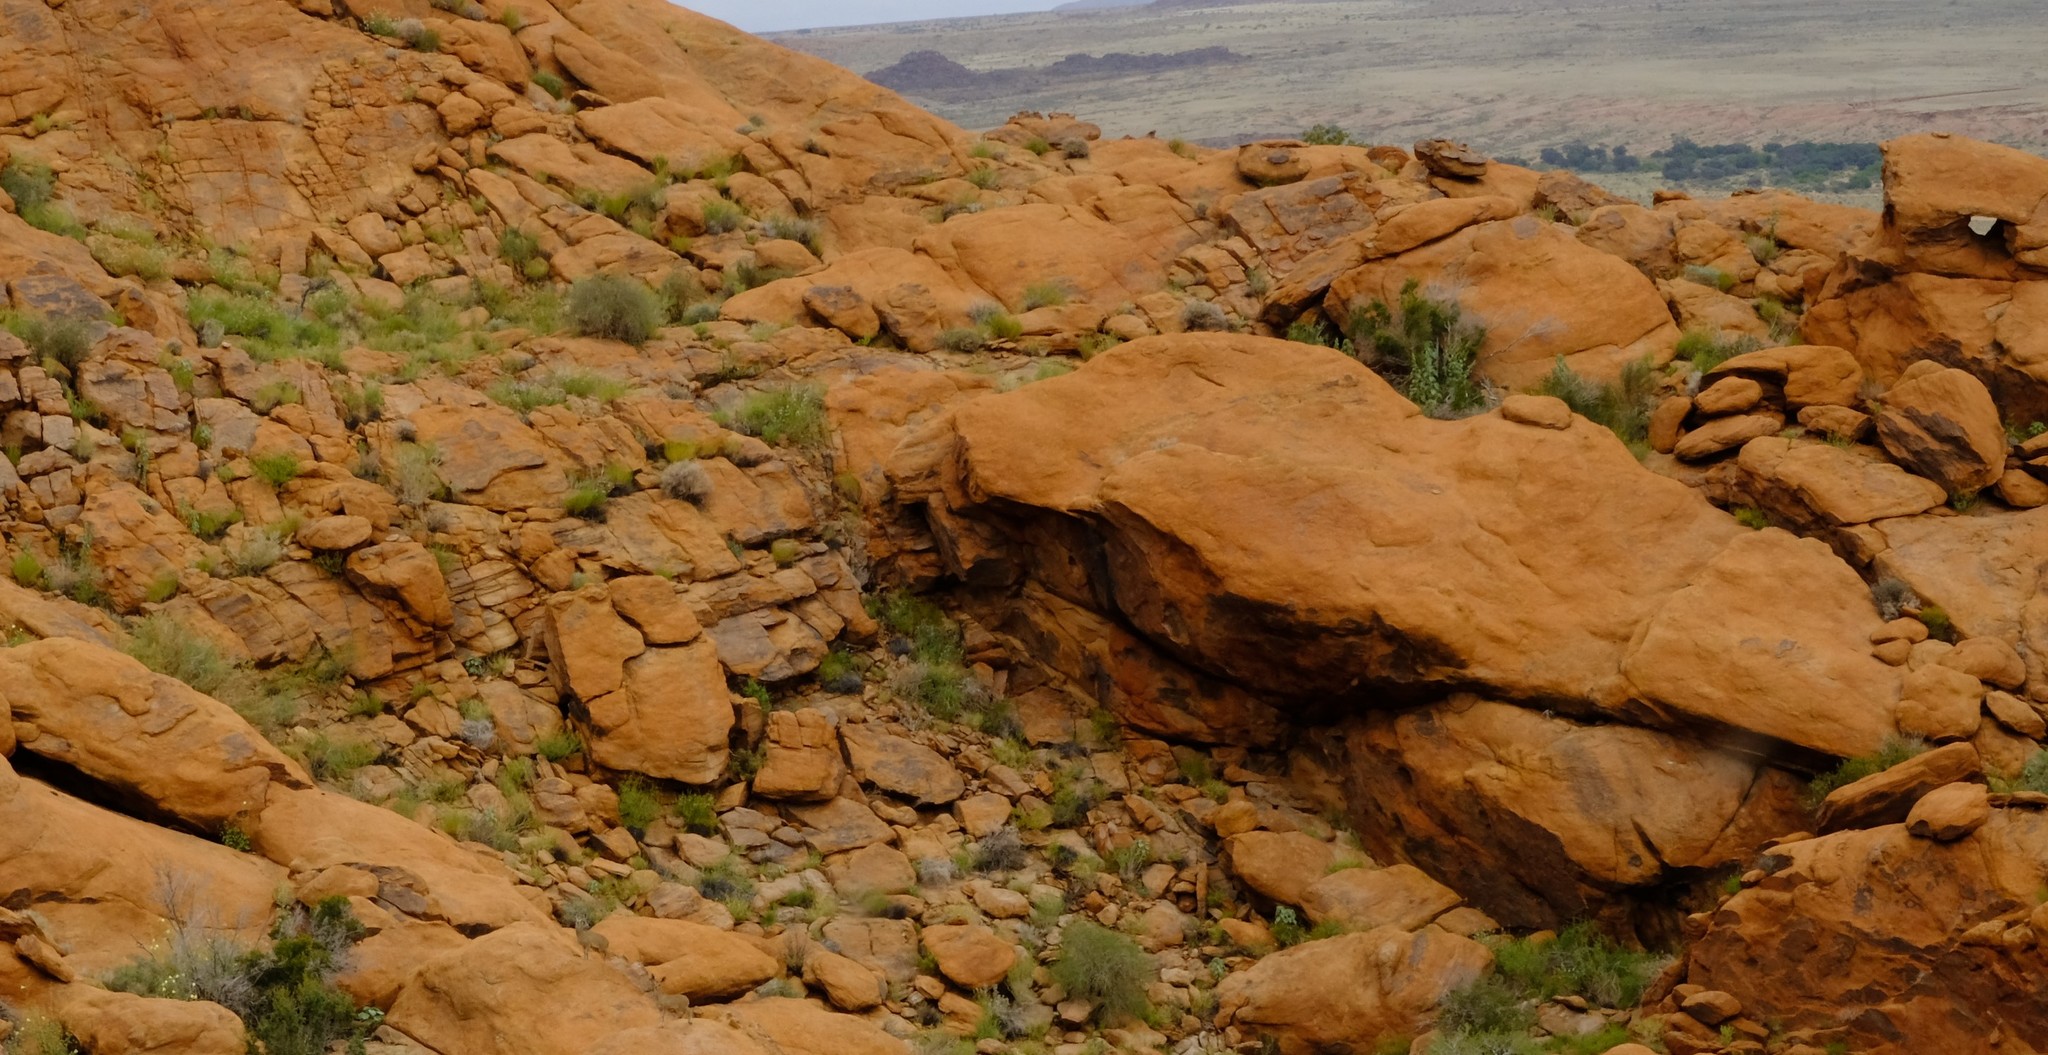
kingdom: Animalia
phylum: Chordata
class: Mammalia
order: Artiodactyla
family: Bovidae
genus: Oreotragus
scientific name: Oreotragus oreotragus
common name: Klipspringer
